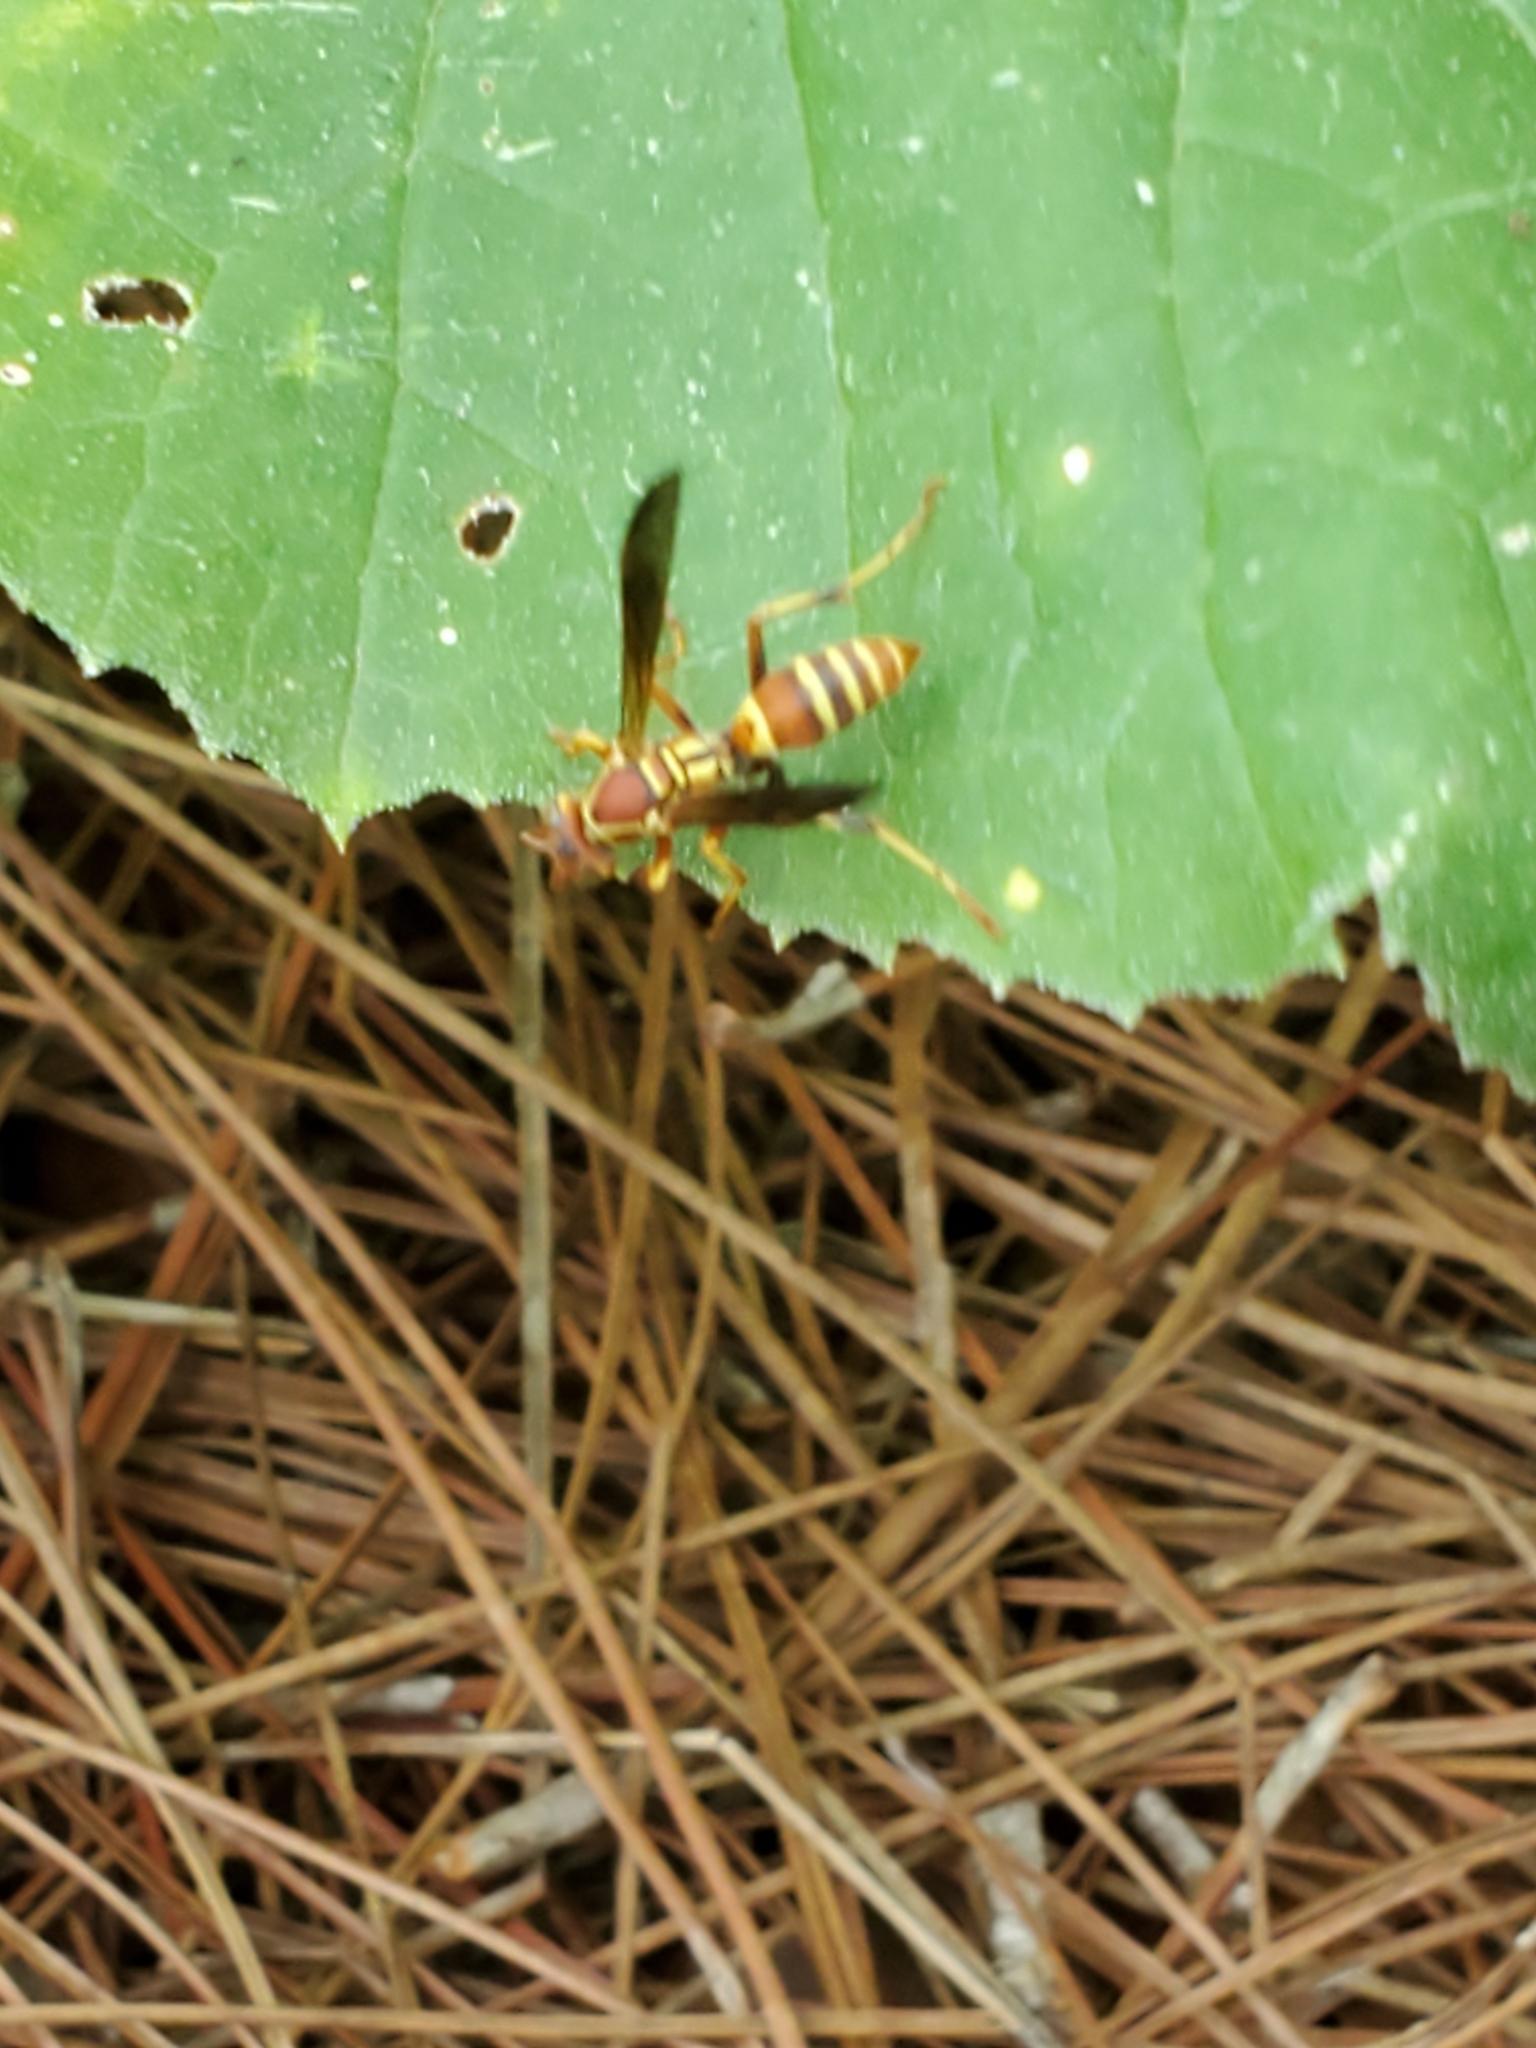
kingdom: Animalia
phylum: Arthropoda
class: Insecta
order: Hymenoptera
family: Eumenidae
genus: Polistes
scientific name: Polistes dorsalis
